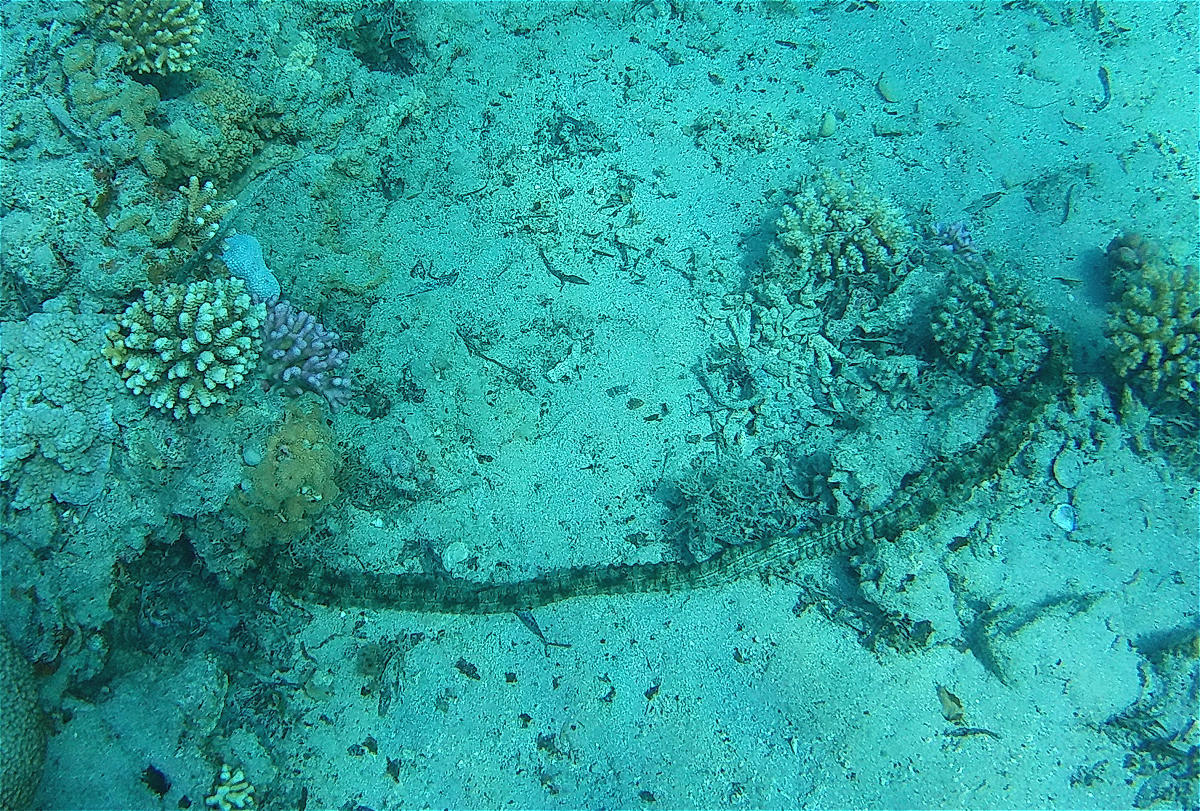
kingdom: Animalia
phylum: Echinodermata
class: Holothuroidea
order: Apodida
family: Synaptidae
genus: Synapta
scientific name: Synapta maculata
